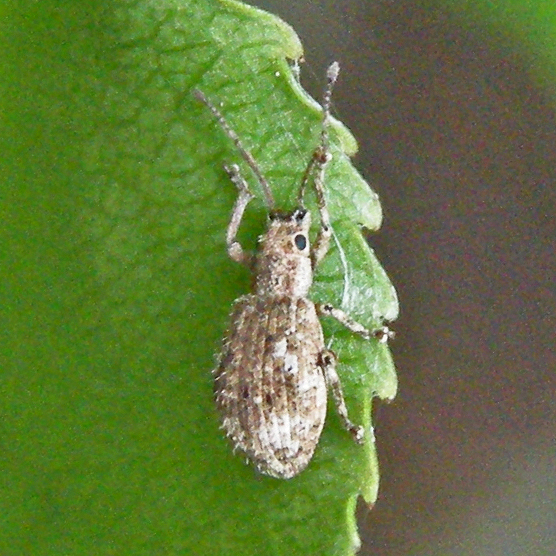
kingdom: Animalia
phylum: Arthropoda
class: Insecta
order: Coleoptera
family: Curculionidae
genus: Pseudoedophrys
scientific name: Pseudoedophrys hilleri
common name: Weevil
